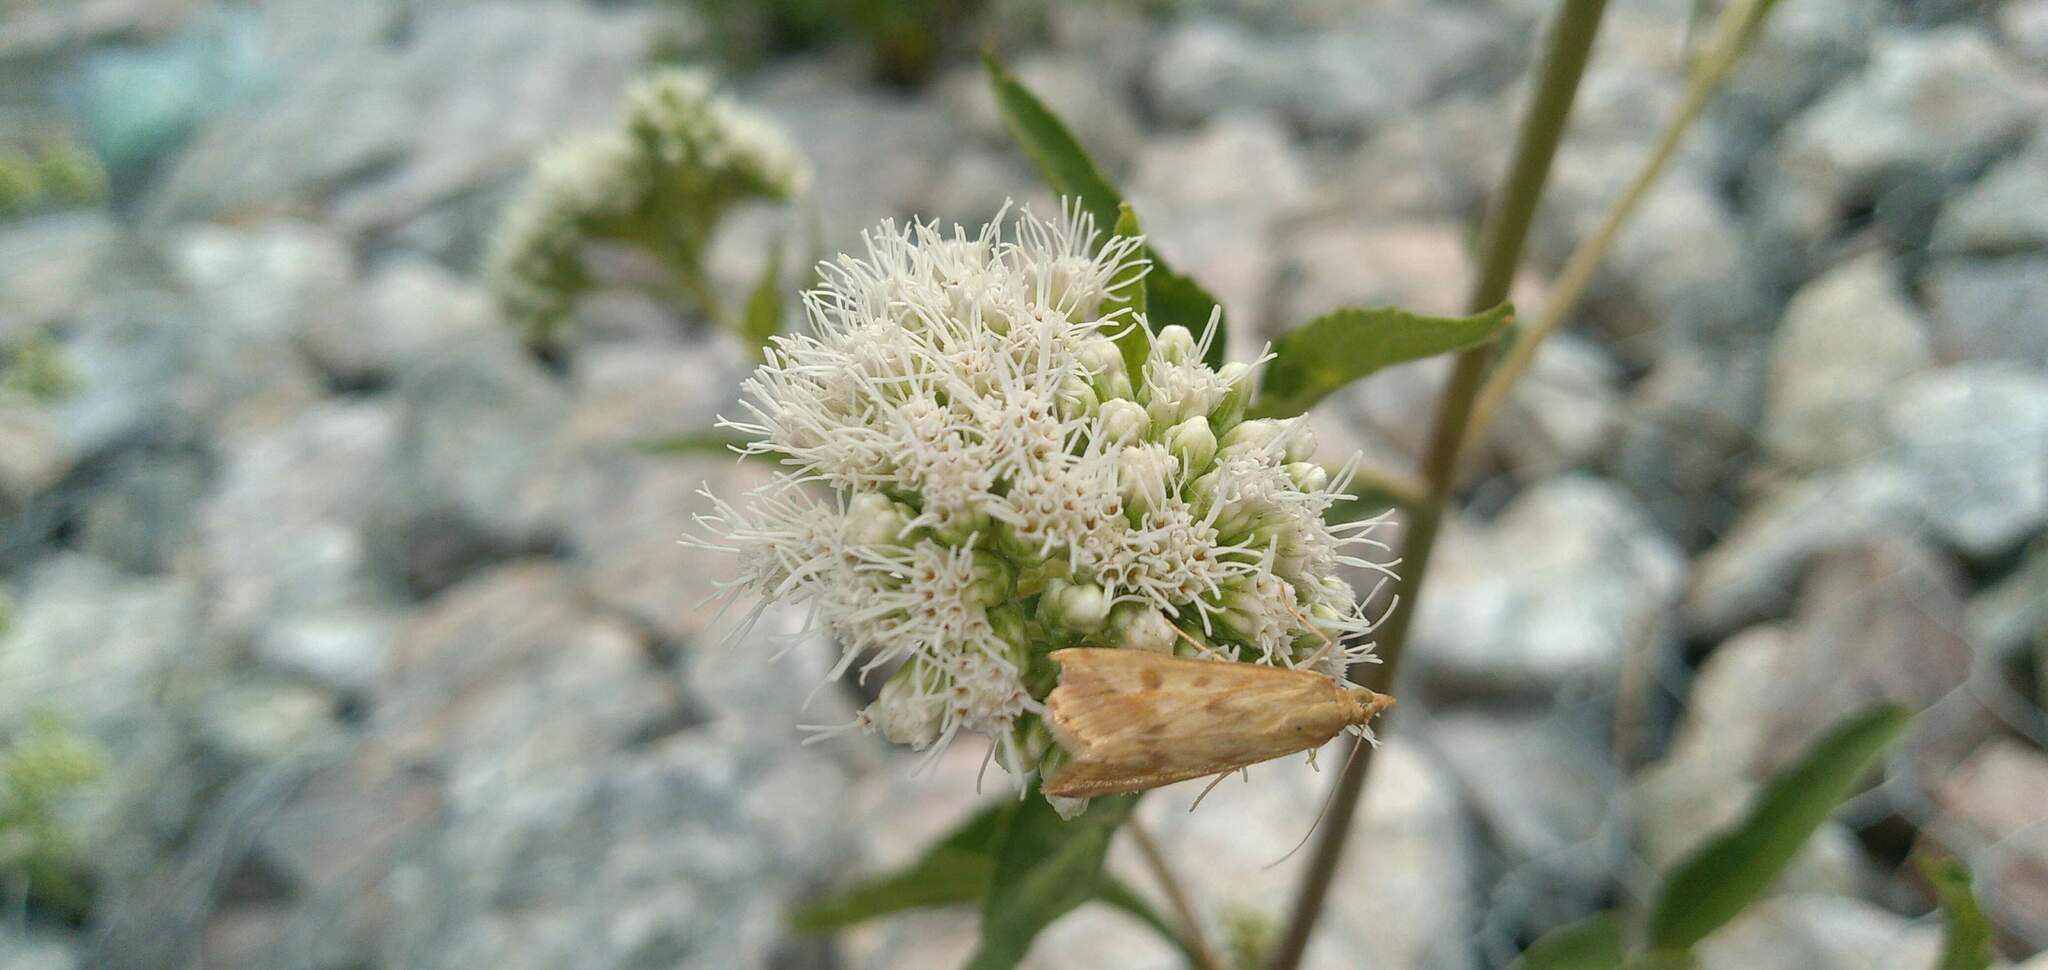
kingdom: Animalia
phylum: Arthropoda
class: Insecta
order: Lepidoptera
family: Crambidae
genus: Achyra
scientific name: Achyra bifidalis
